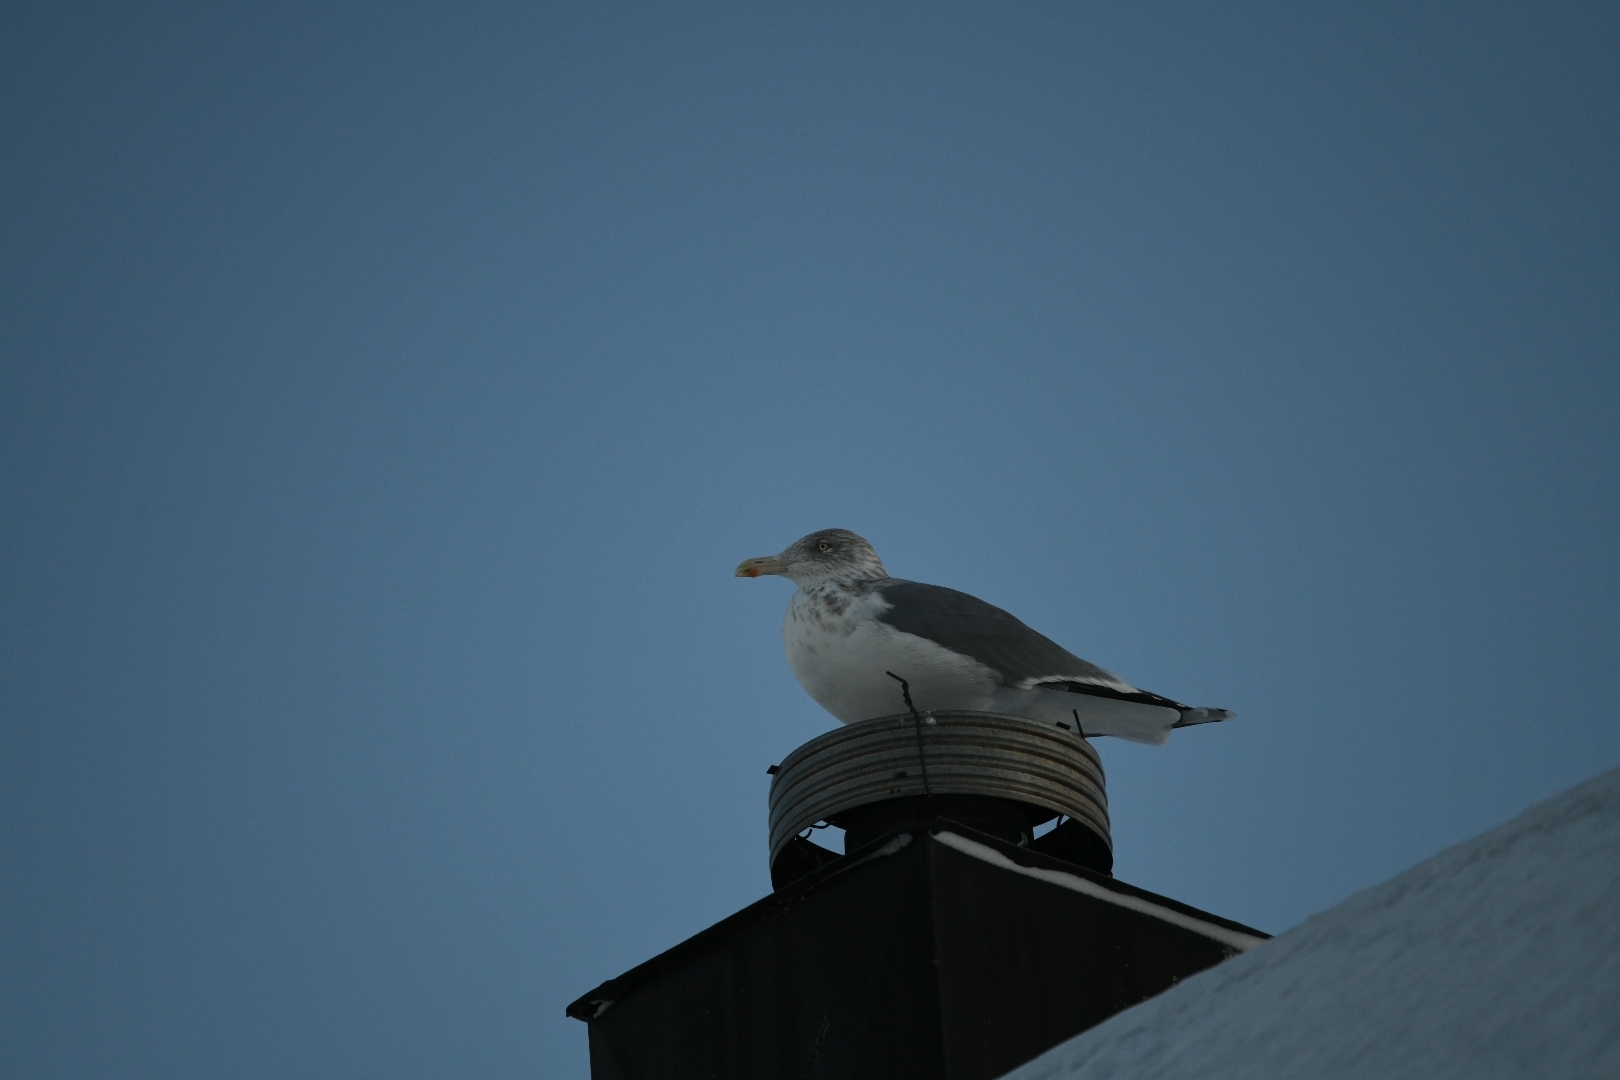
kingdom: Animalia
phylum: Chordata
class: Aves
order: Charadriiformes
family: Laridae
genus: Larus
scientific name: Larus argentatus
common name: Herring gull
